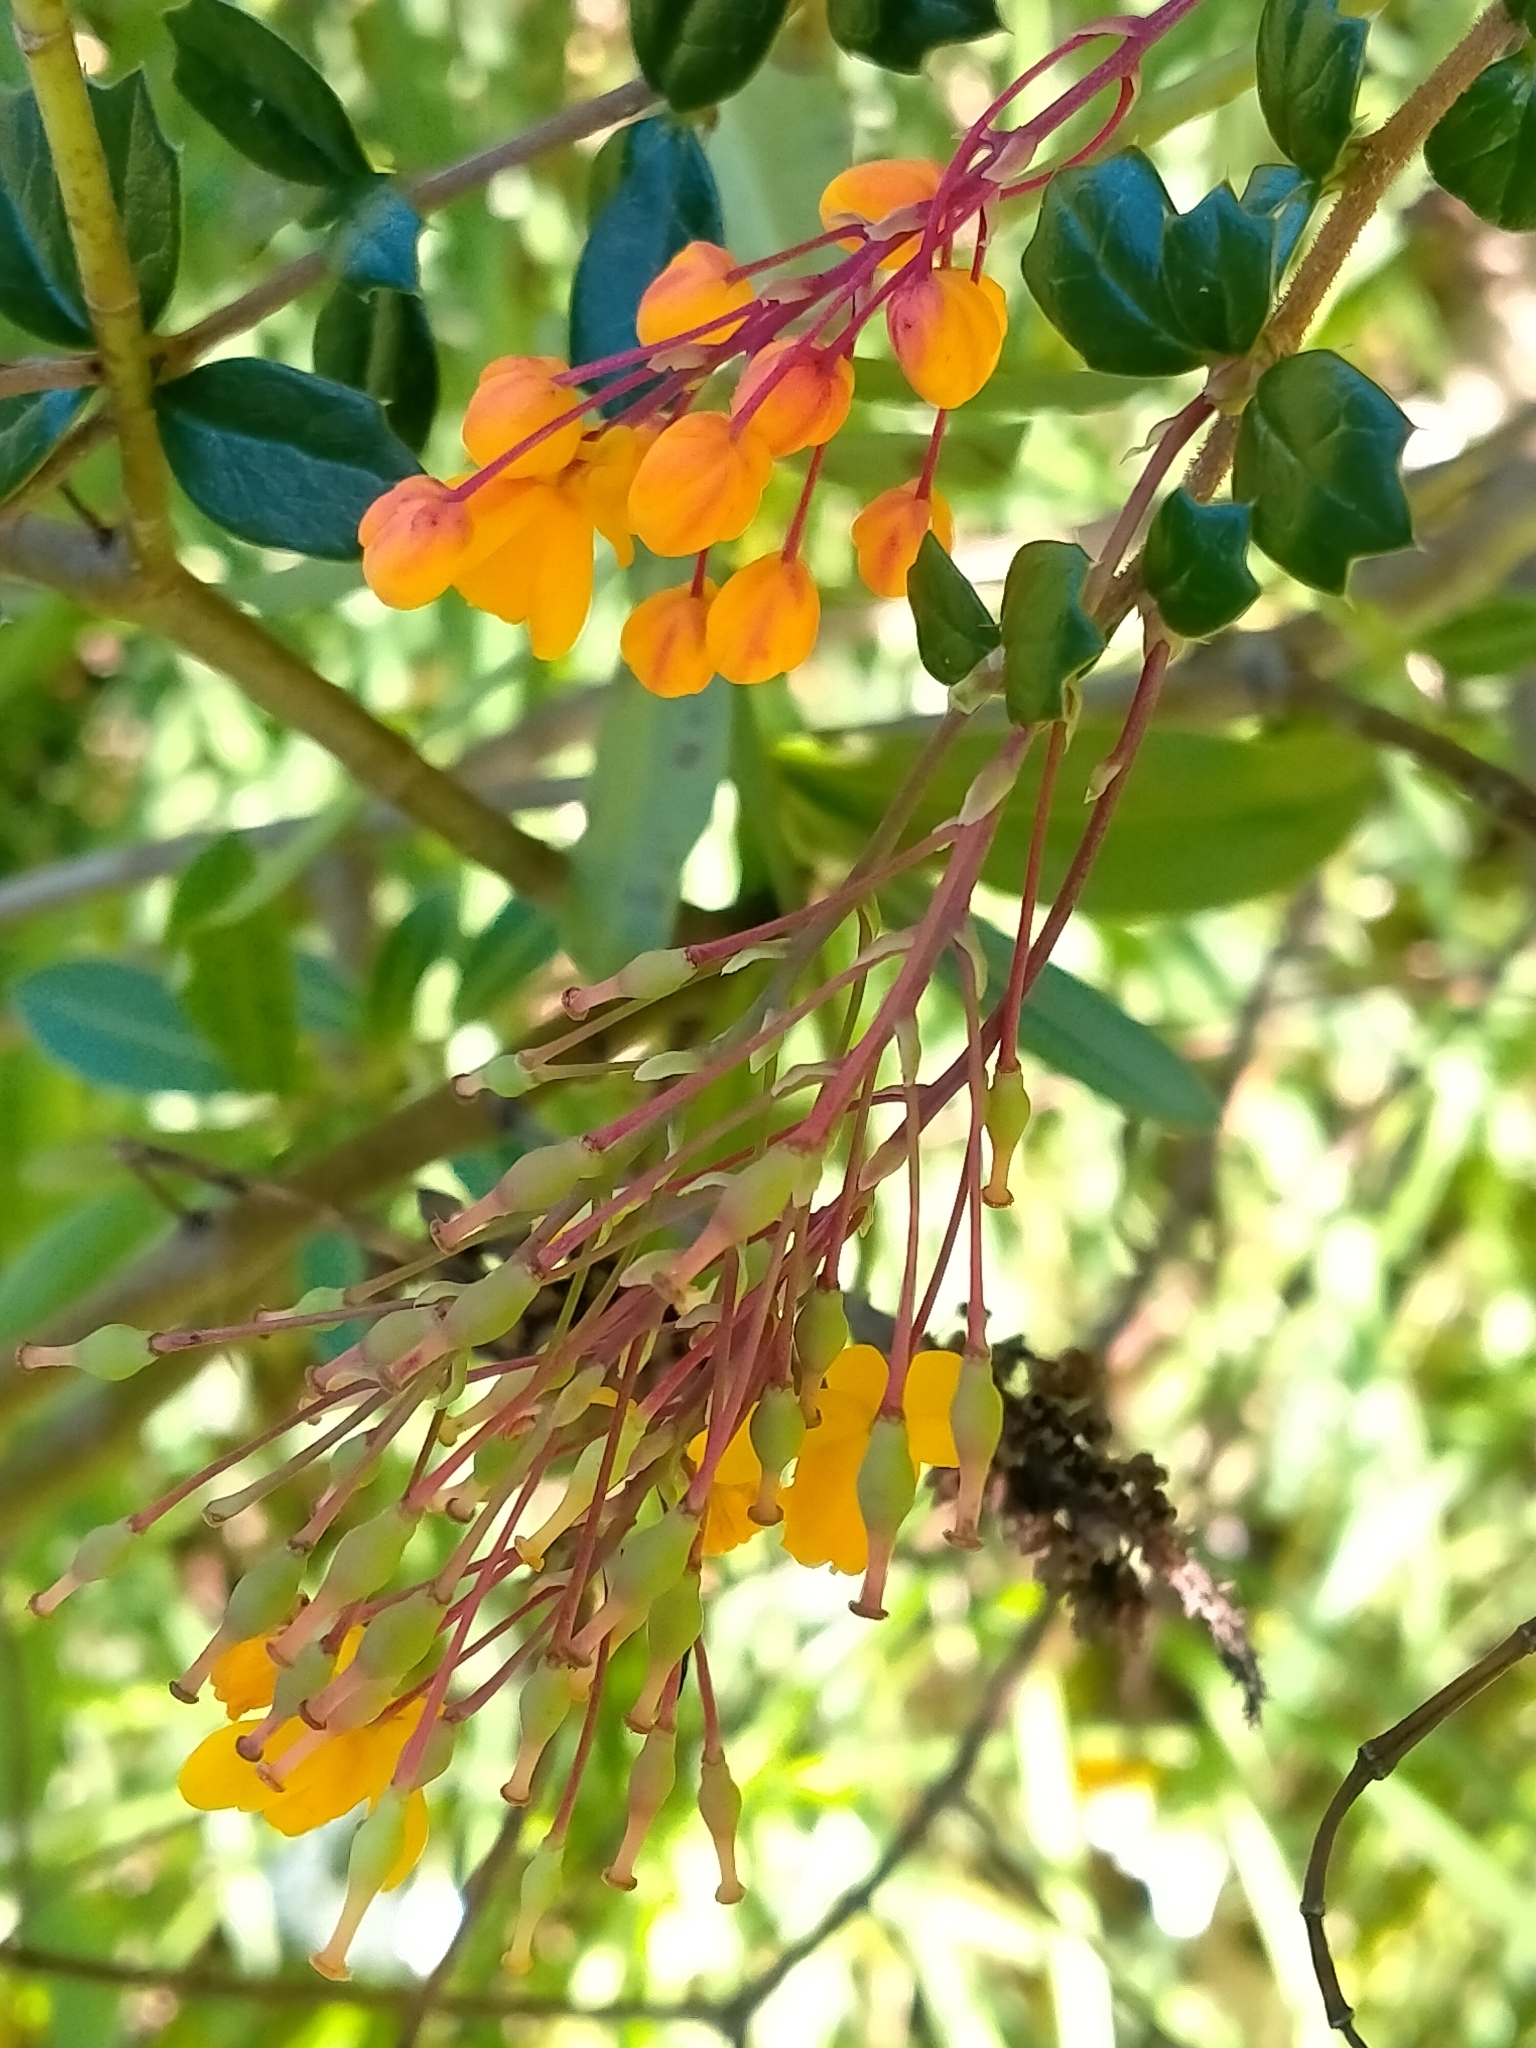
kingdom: Plantae
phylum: Tracheophyta
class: Magnoliopsida
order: Ranunculales
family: Berberidaceae
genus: Berberis
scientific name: Berberis darwinii
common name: Darwin's barberry
